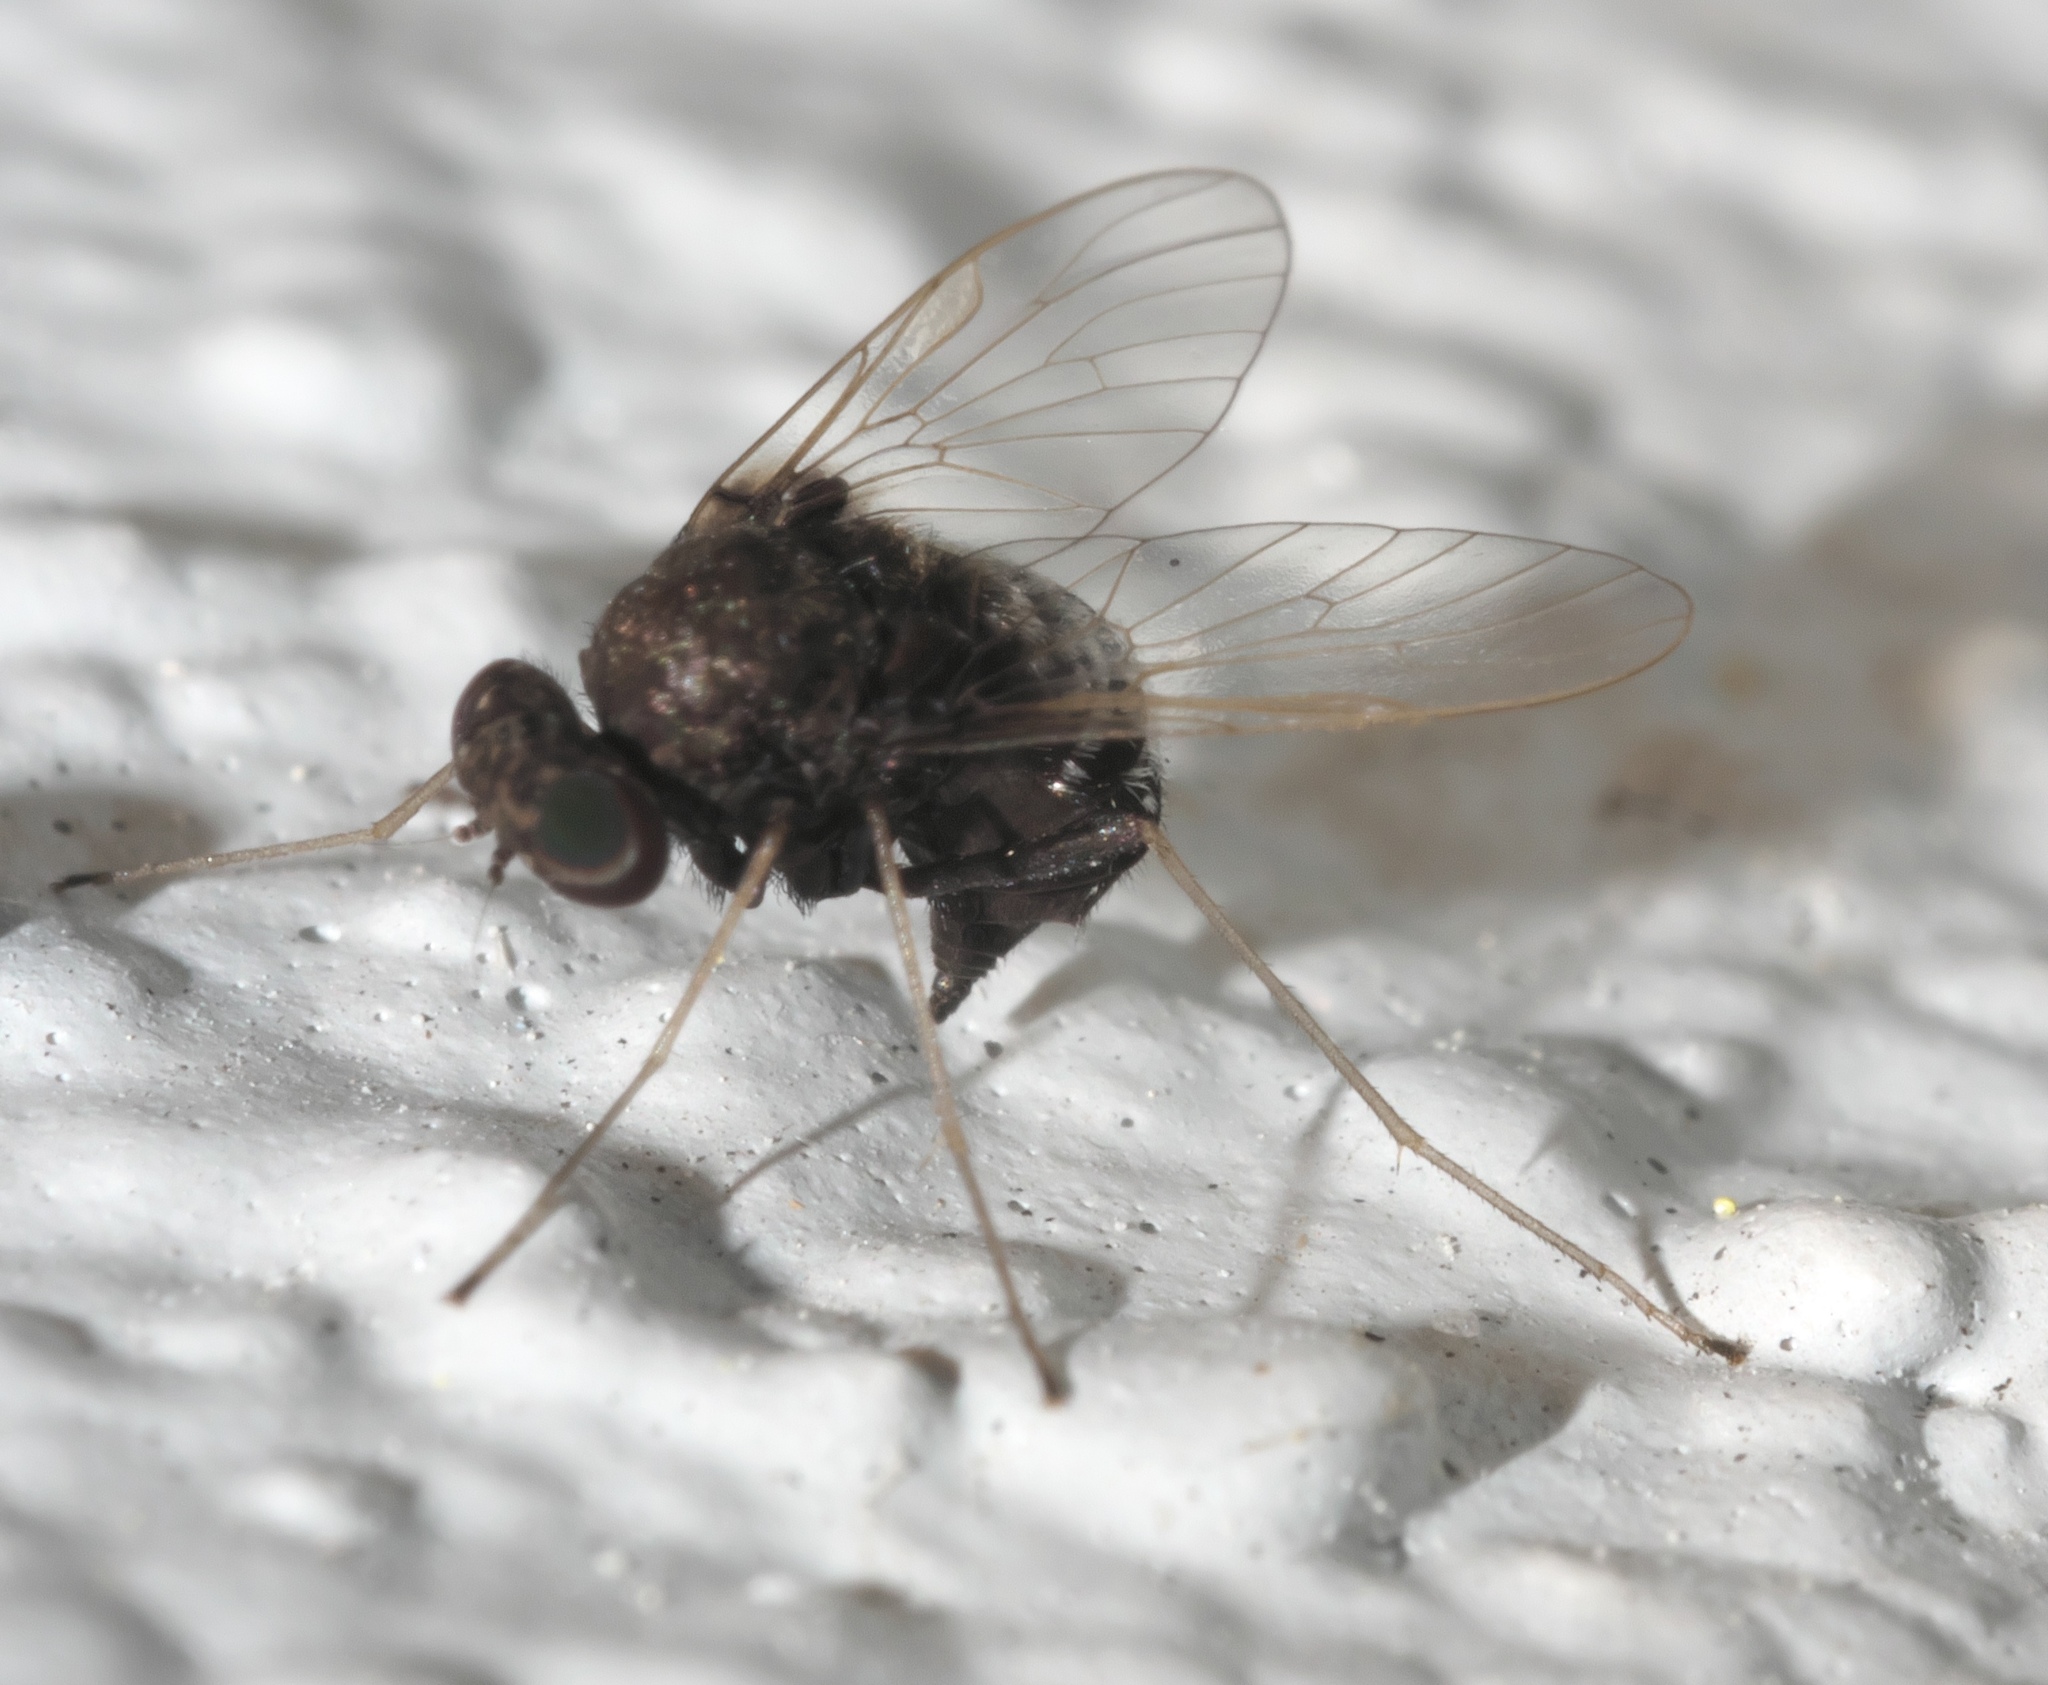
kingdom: Animalia
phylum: Arthropoda
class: Insecta
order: Diptera
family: Rhagionidae
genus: Chrysopilus
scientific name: Chrysopilus basilaris
